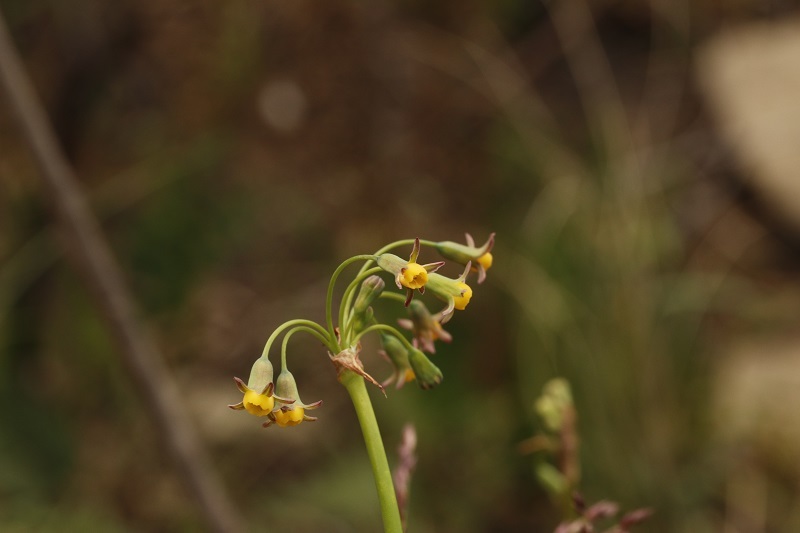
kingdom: Plantae
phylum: Tracheophyta
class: Liliopsida
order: Asparagales
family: Amaryllidaceae
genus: Tulbaghia
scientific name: Tulbaghia acutiloba
